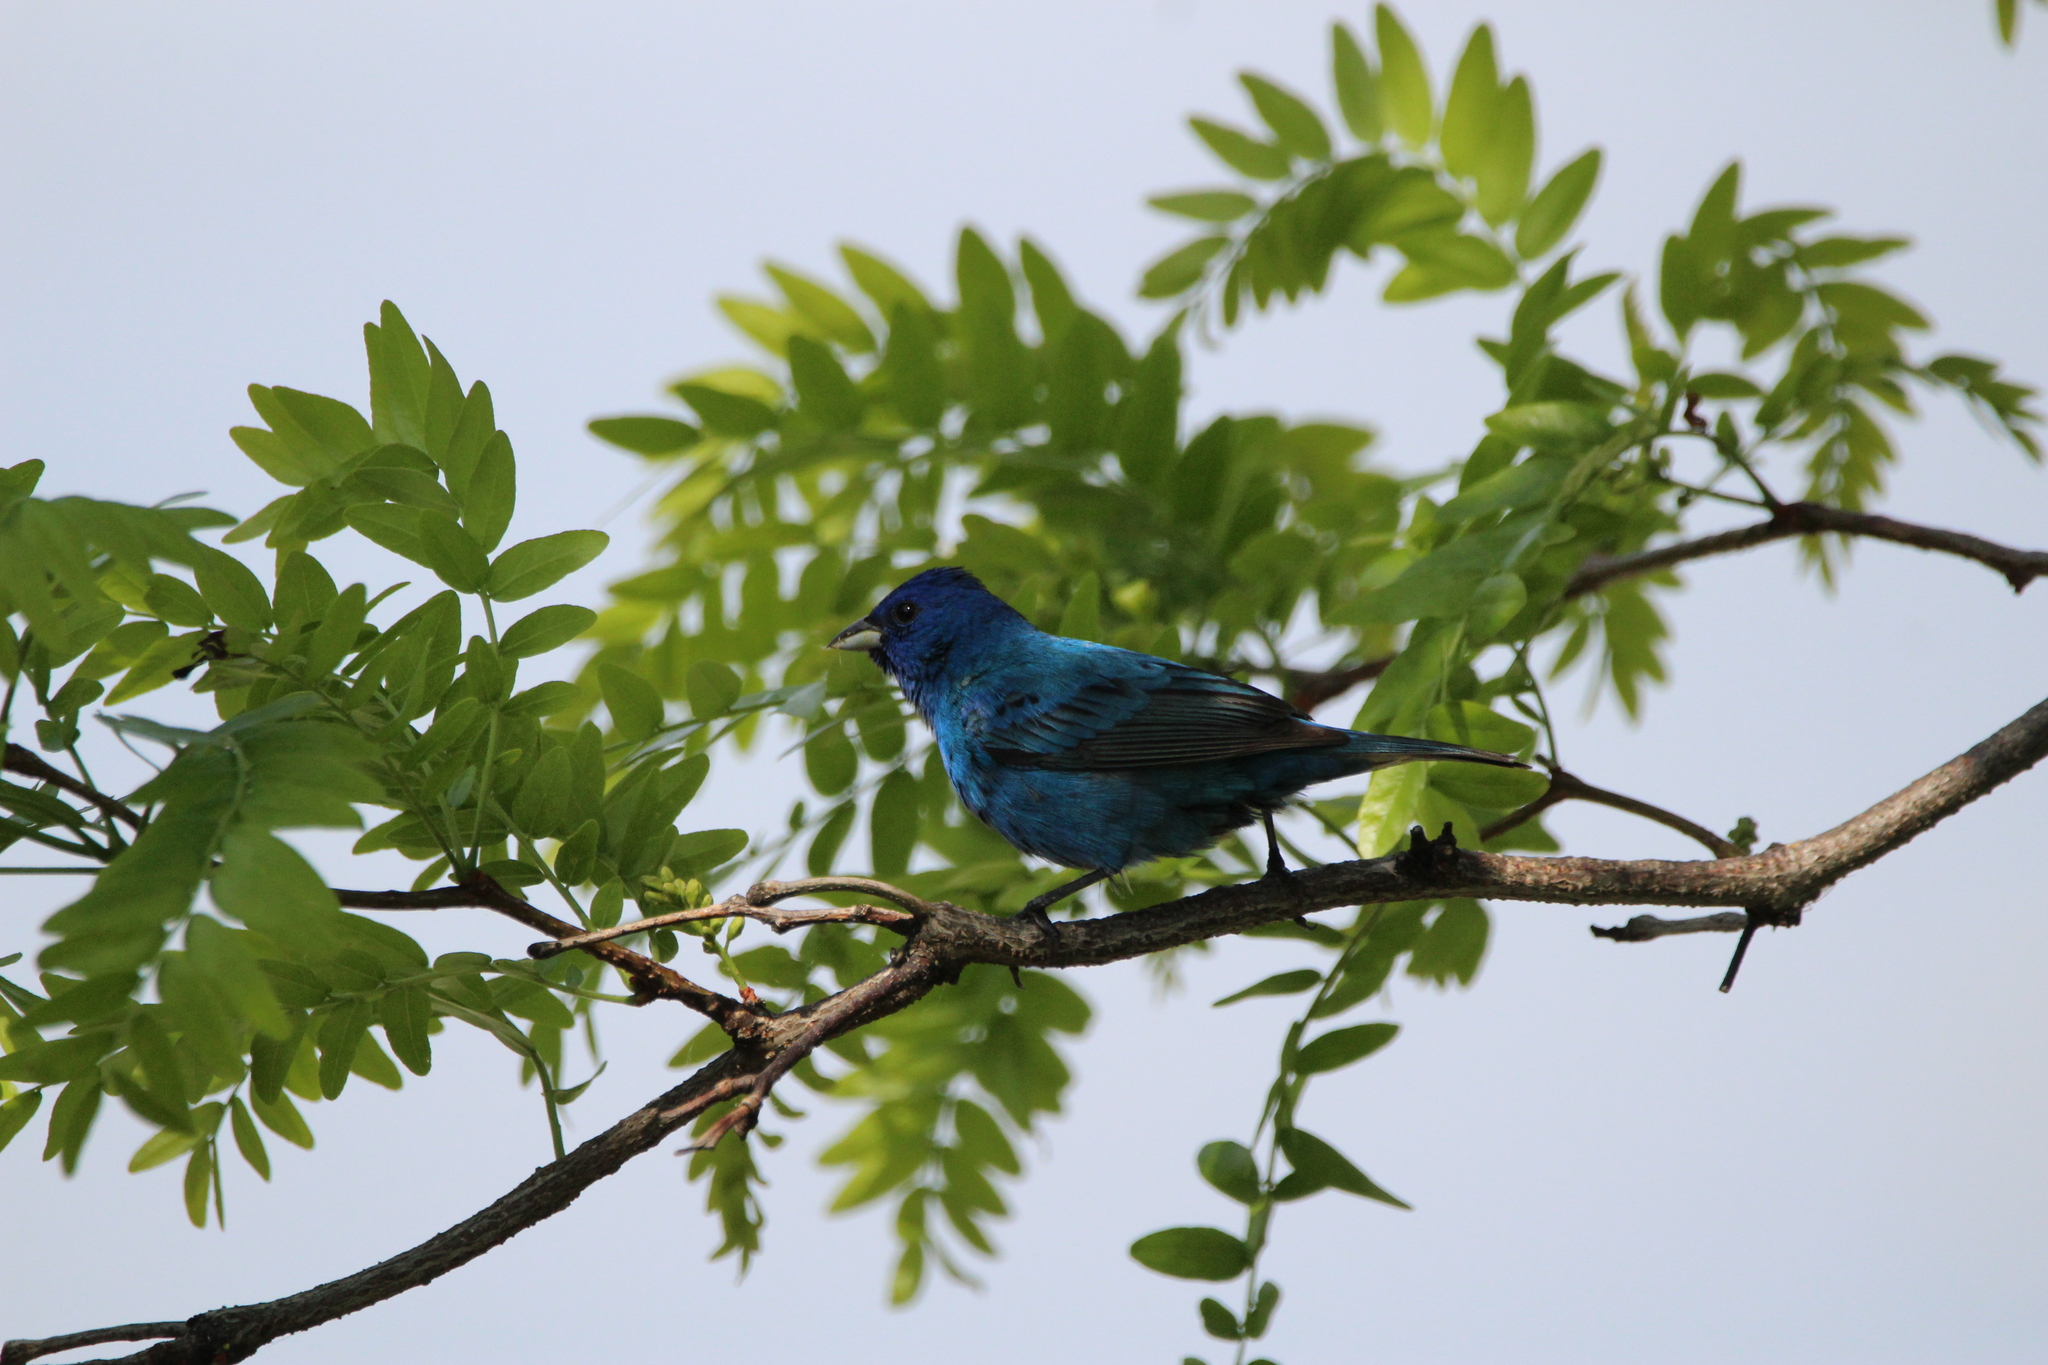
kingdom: Animalia
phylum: Chordata
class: Aves
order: Passeriformes
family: Cardinalidae
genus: Passerina
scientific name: Passerina cyanea
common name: Indigo bunting
